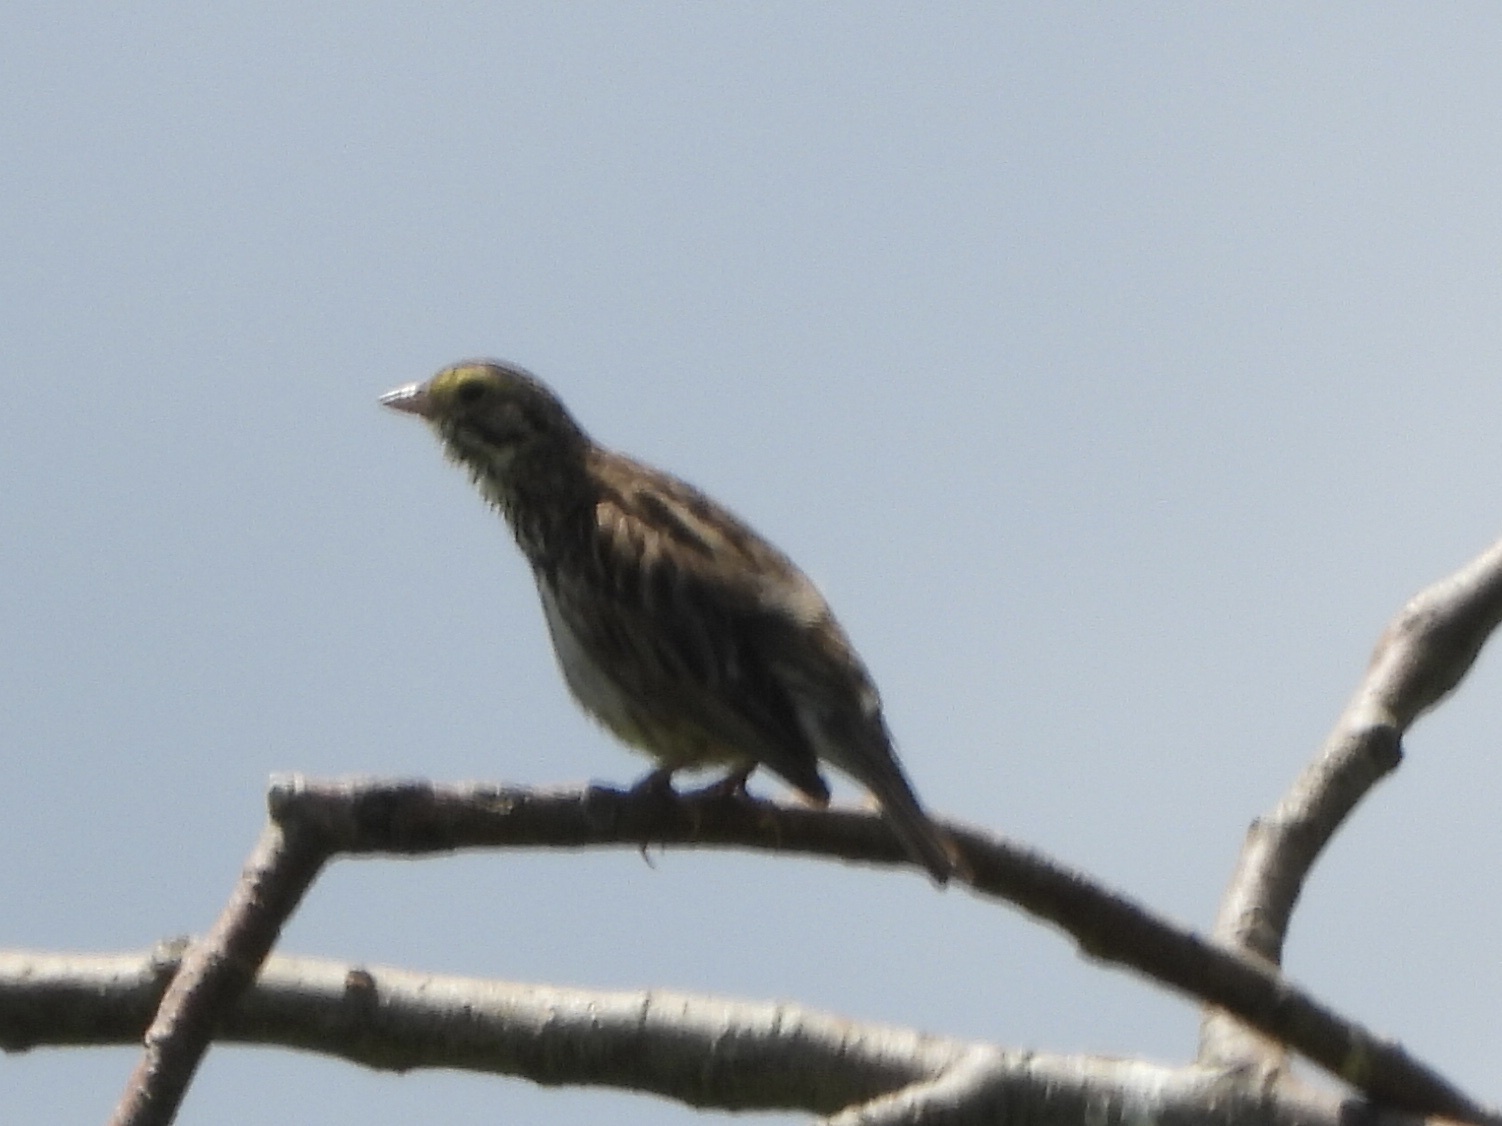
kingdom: Animalia
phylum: Chordata
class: Aves
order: Passeriformes
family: Passerellidae
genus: Passerculus
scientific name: Passerculus sandwichensis
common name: Savannah sparrow
